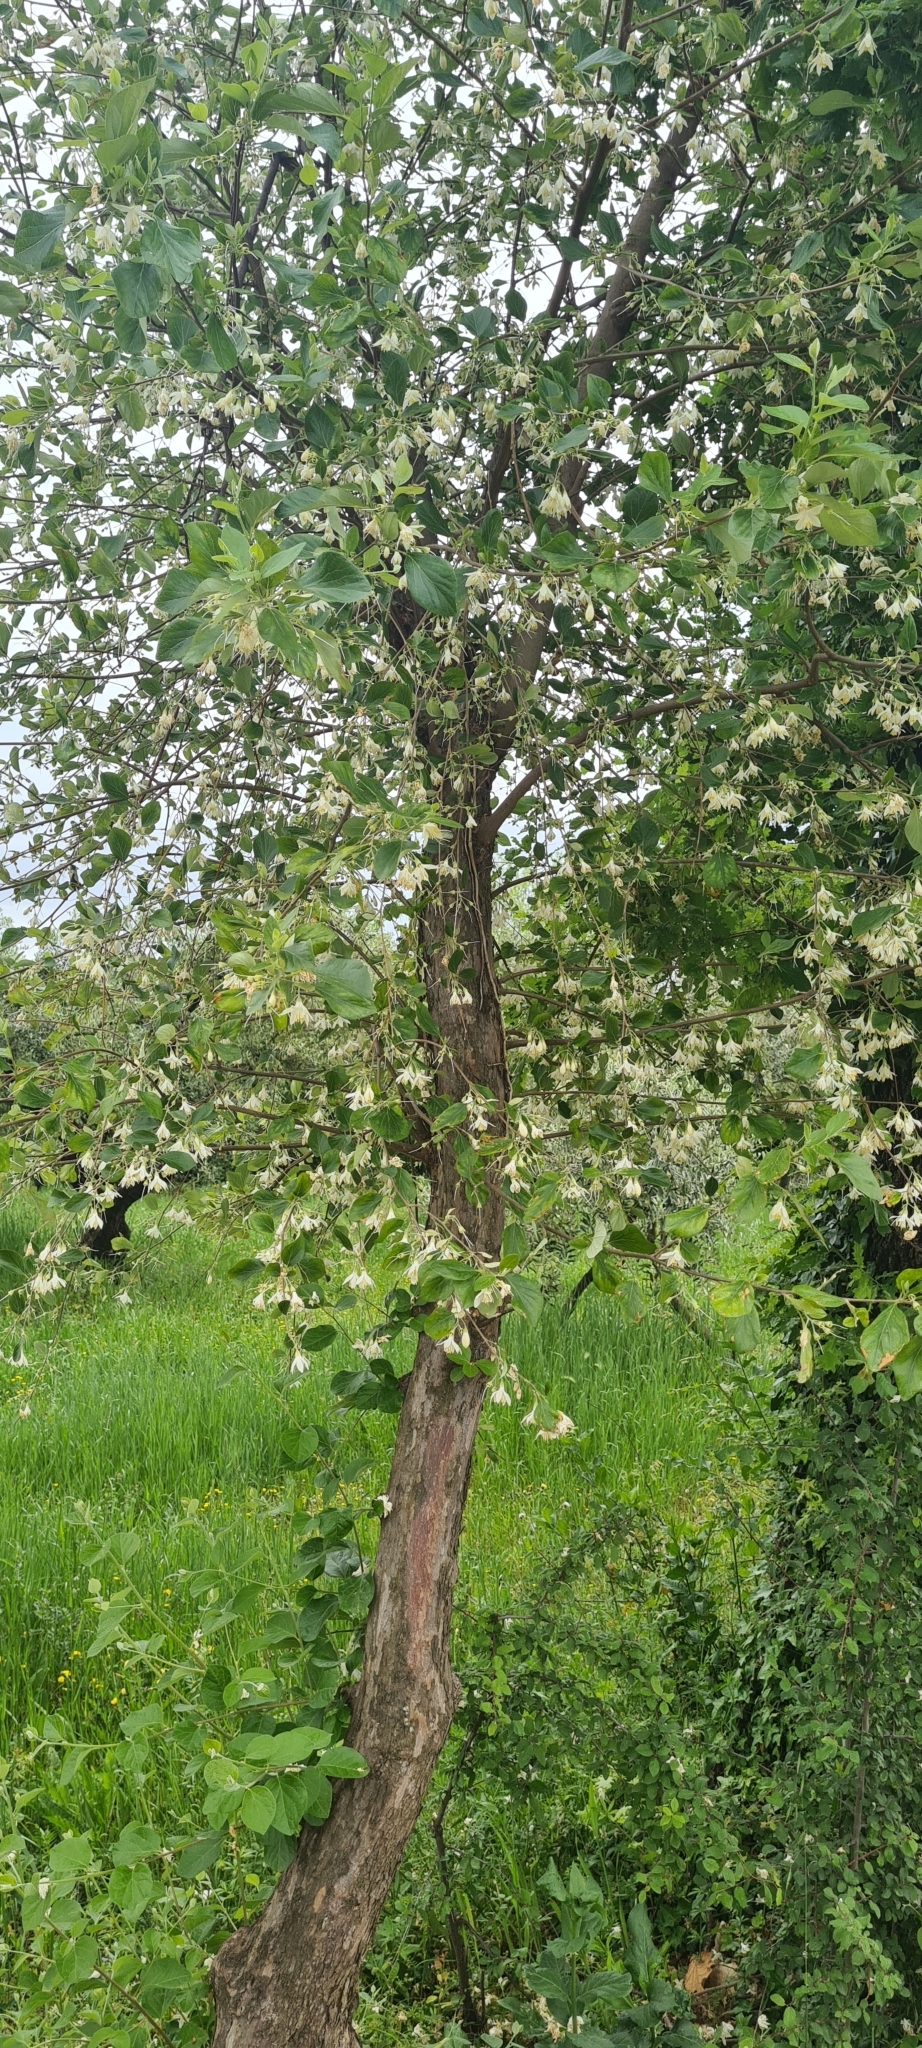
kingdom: Plantae
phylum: Tracheophyta
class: Magnoliopsida
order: Ericales
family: Styracaceae
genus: Styrax
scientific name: Styrax officinalis
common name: Storax
